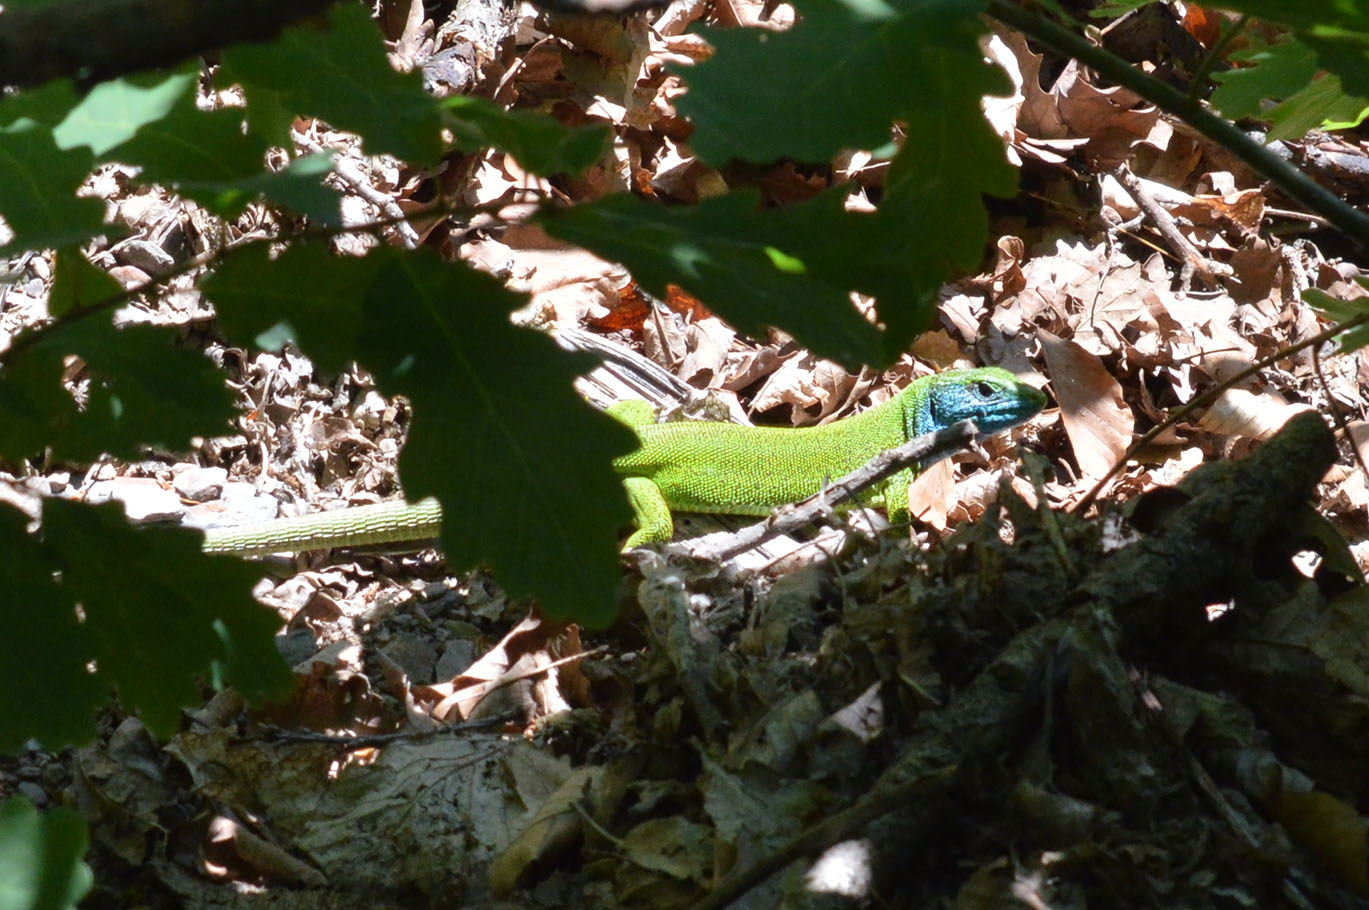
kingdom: Animalia
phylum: Chordata
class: Squamata
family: Lacertidae
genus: Lacerta
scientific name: Lacerta viridis
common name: European green lizard
